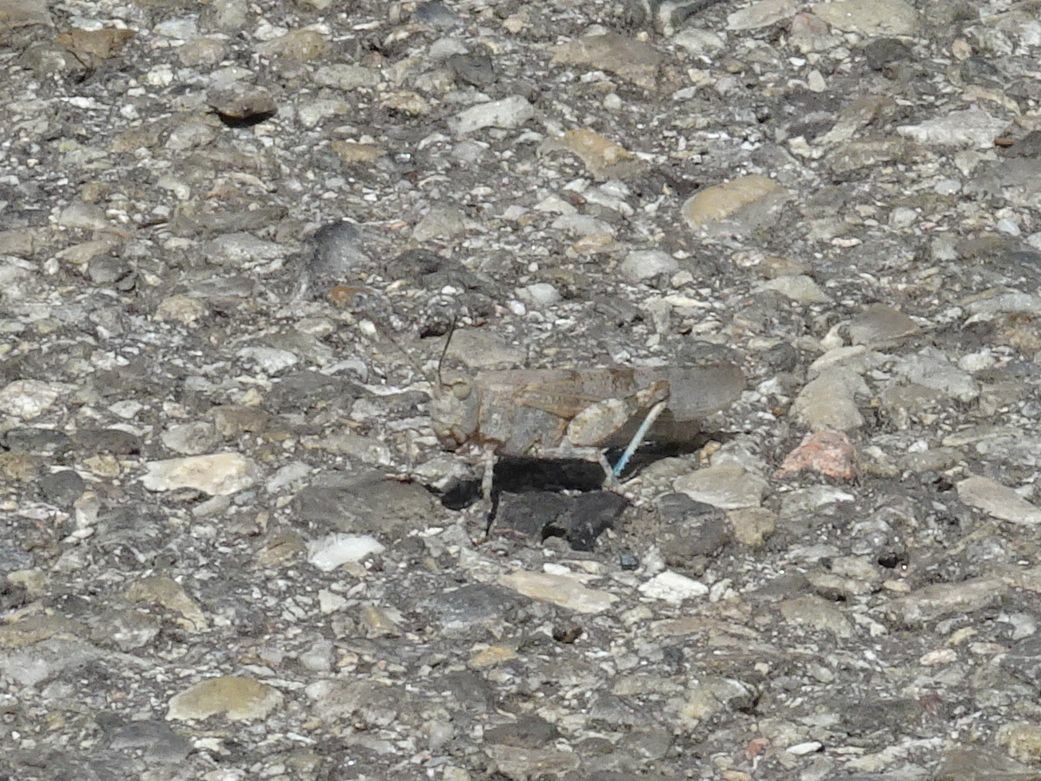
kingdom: Animalia
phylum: Arthropoda
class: Insecta
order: Orthoptera
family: Acrididae
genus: Sphingonotus
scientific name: Sphingonotus caerulans
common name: Blue-winged locust
